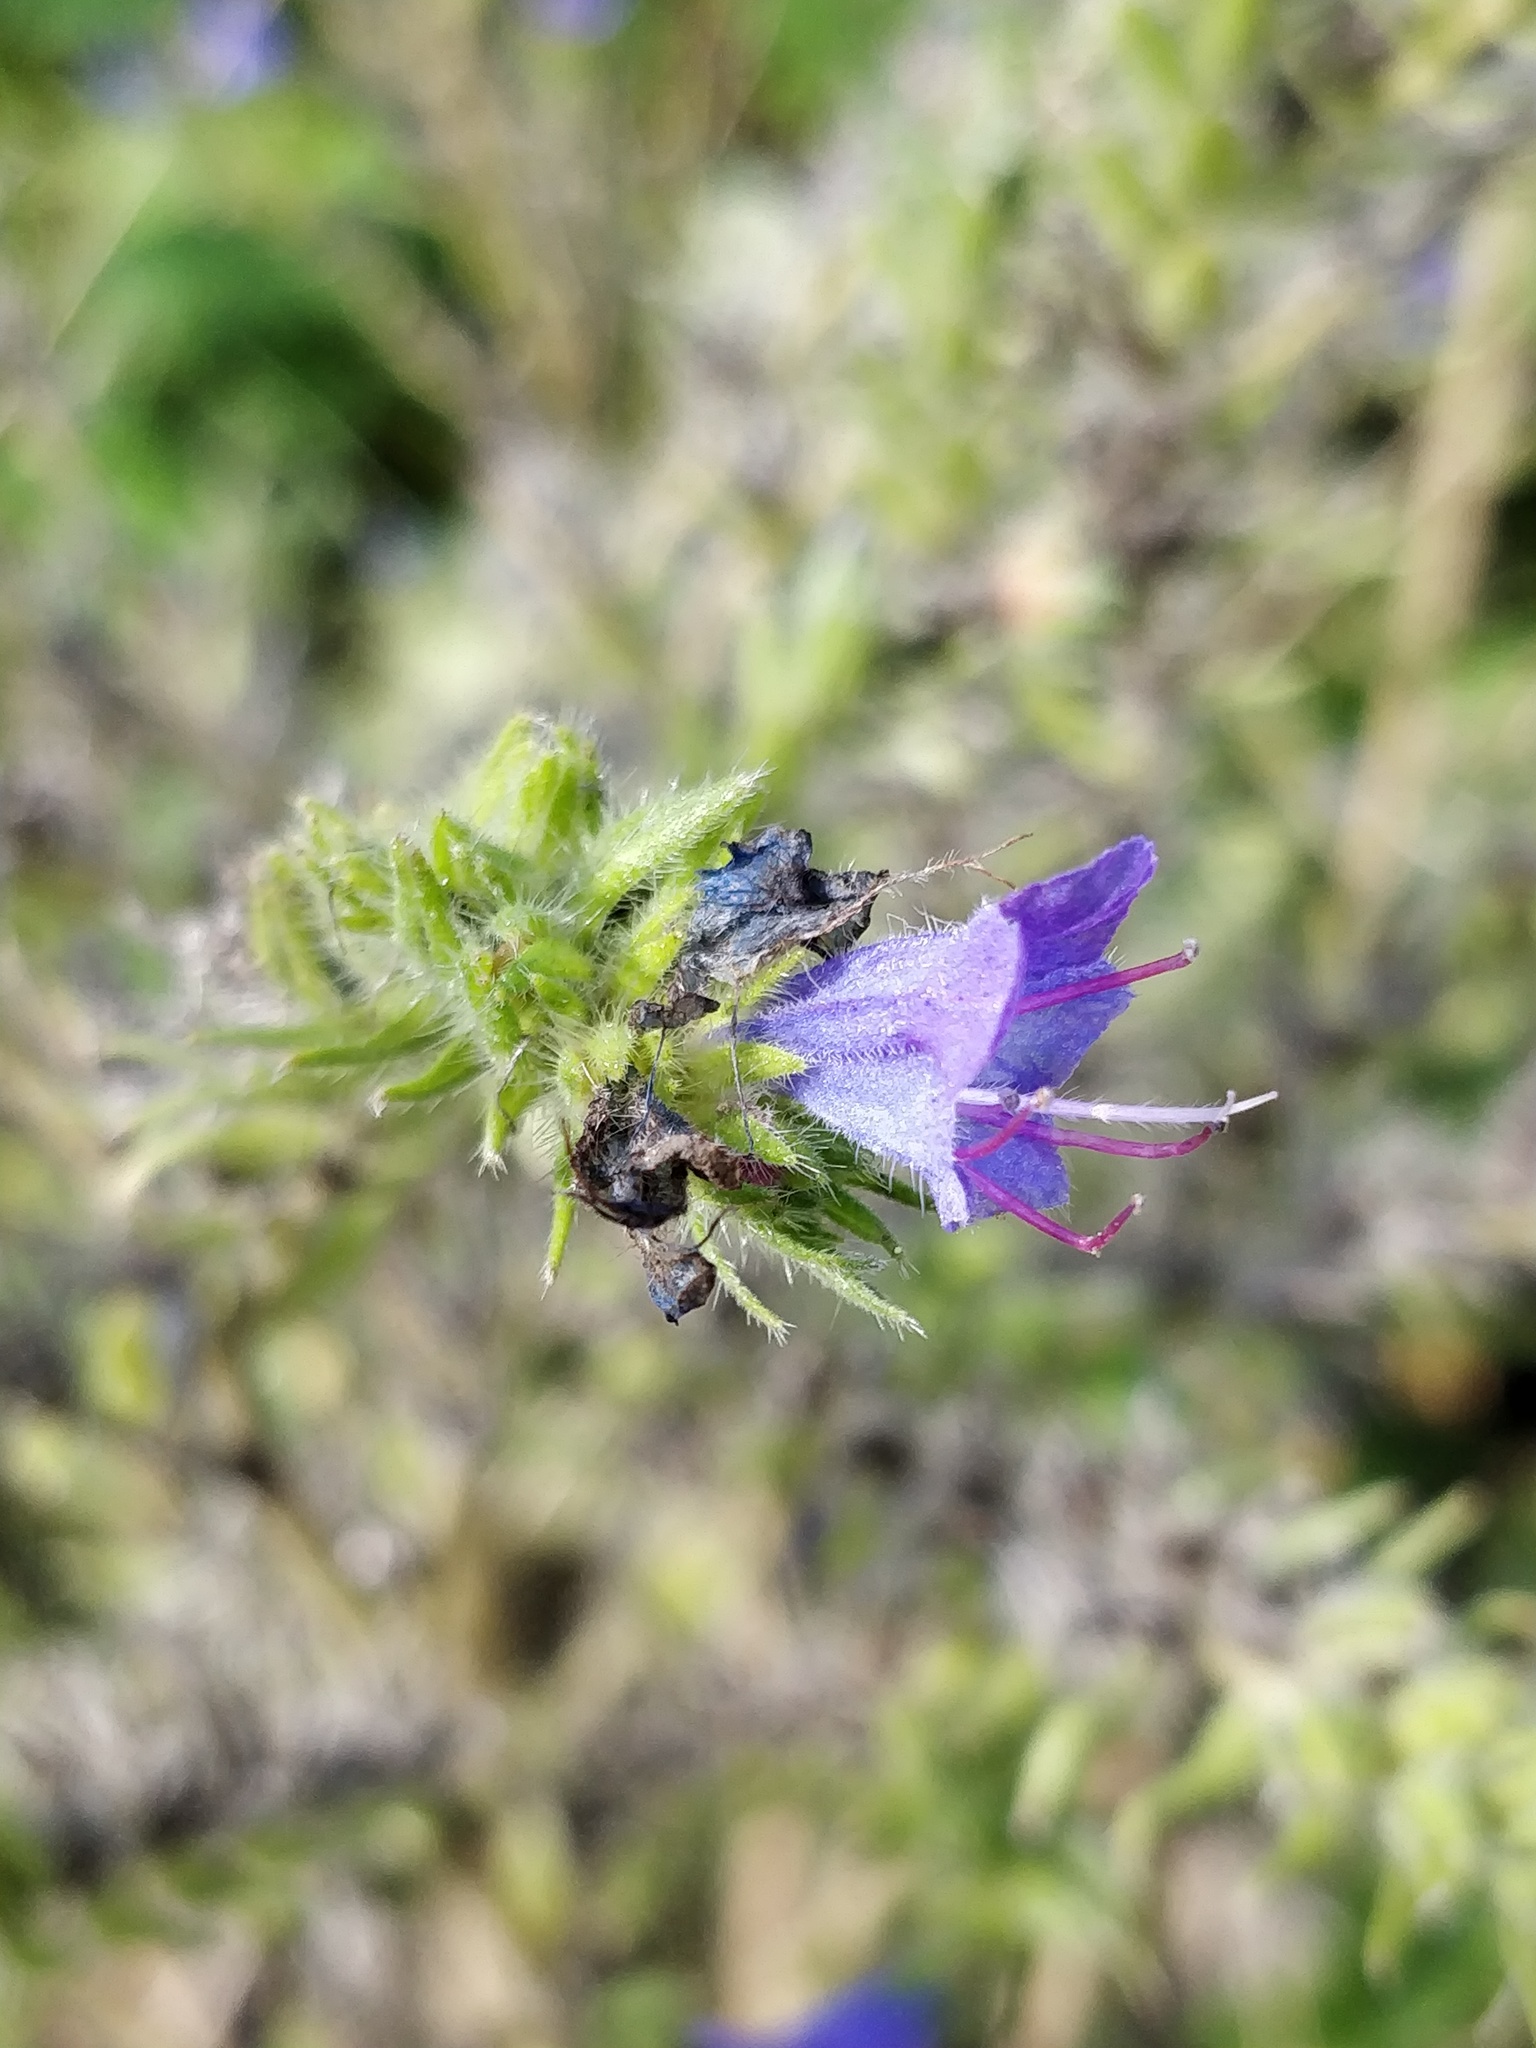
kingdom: Plantae
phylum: Tracheophyta
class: Magnoliopsida
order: Boraginales
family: Boraginaceae
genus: Echium
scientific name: Echium vulgare
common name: Common viper's bugloss
